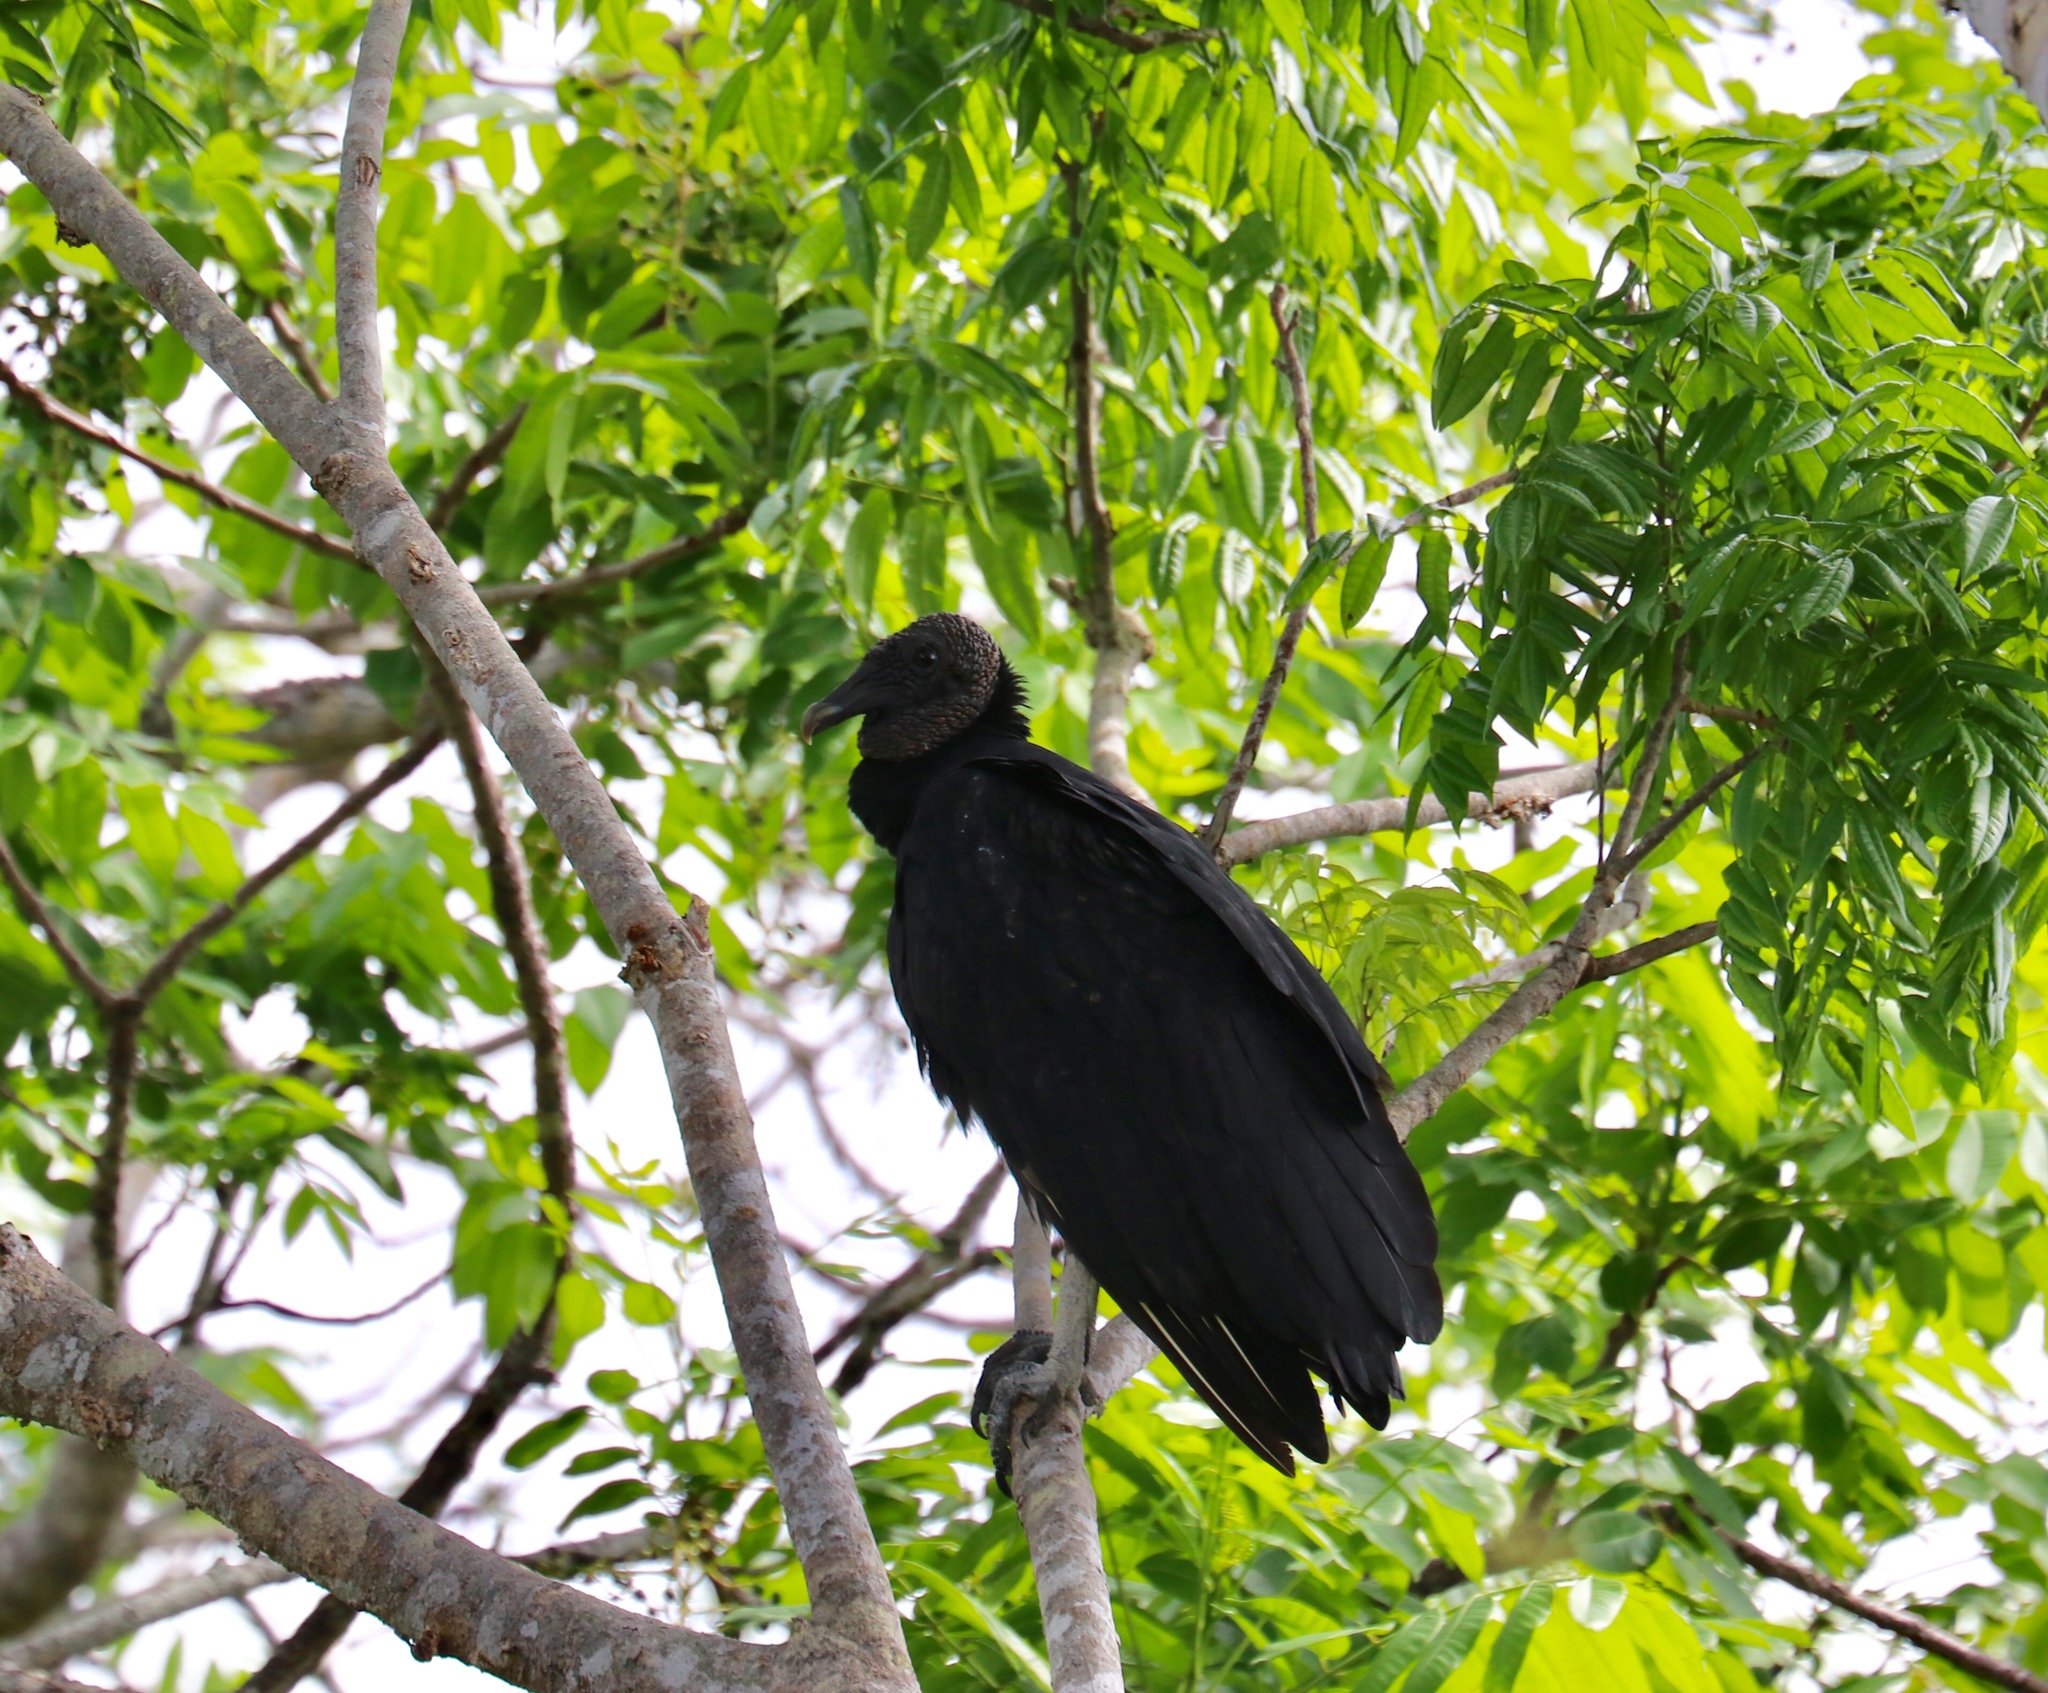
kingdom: Animalia
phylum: Chordata
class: Aves
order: Accipitriformes
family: Cathartidae
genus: Coragyps
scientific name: Coragyps atratus
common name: Black vulture
